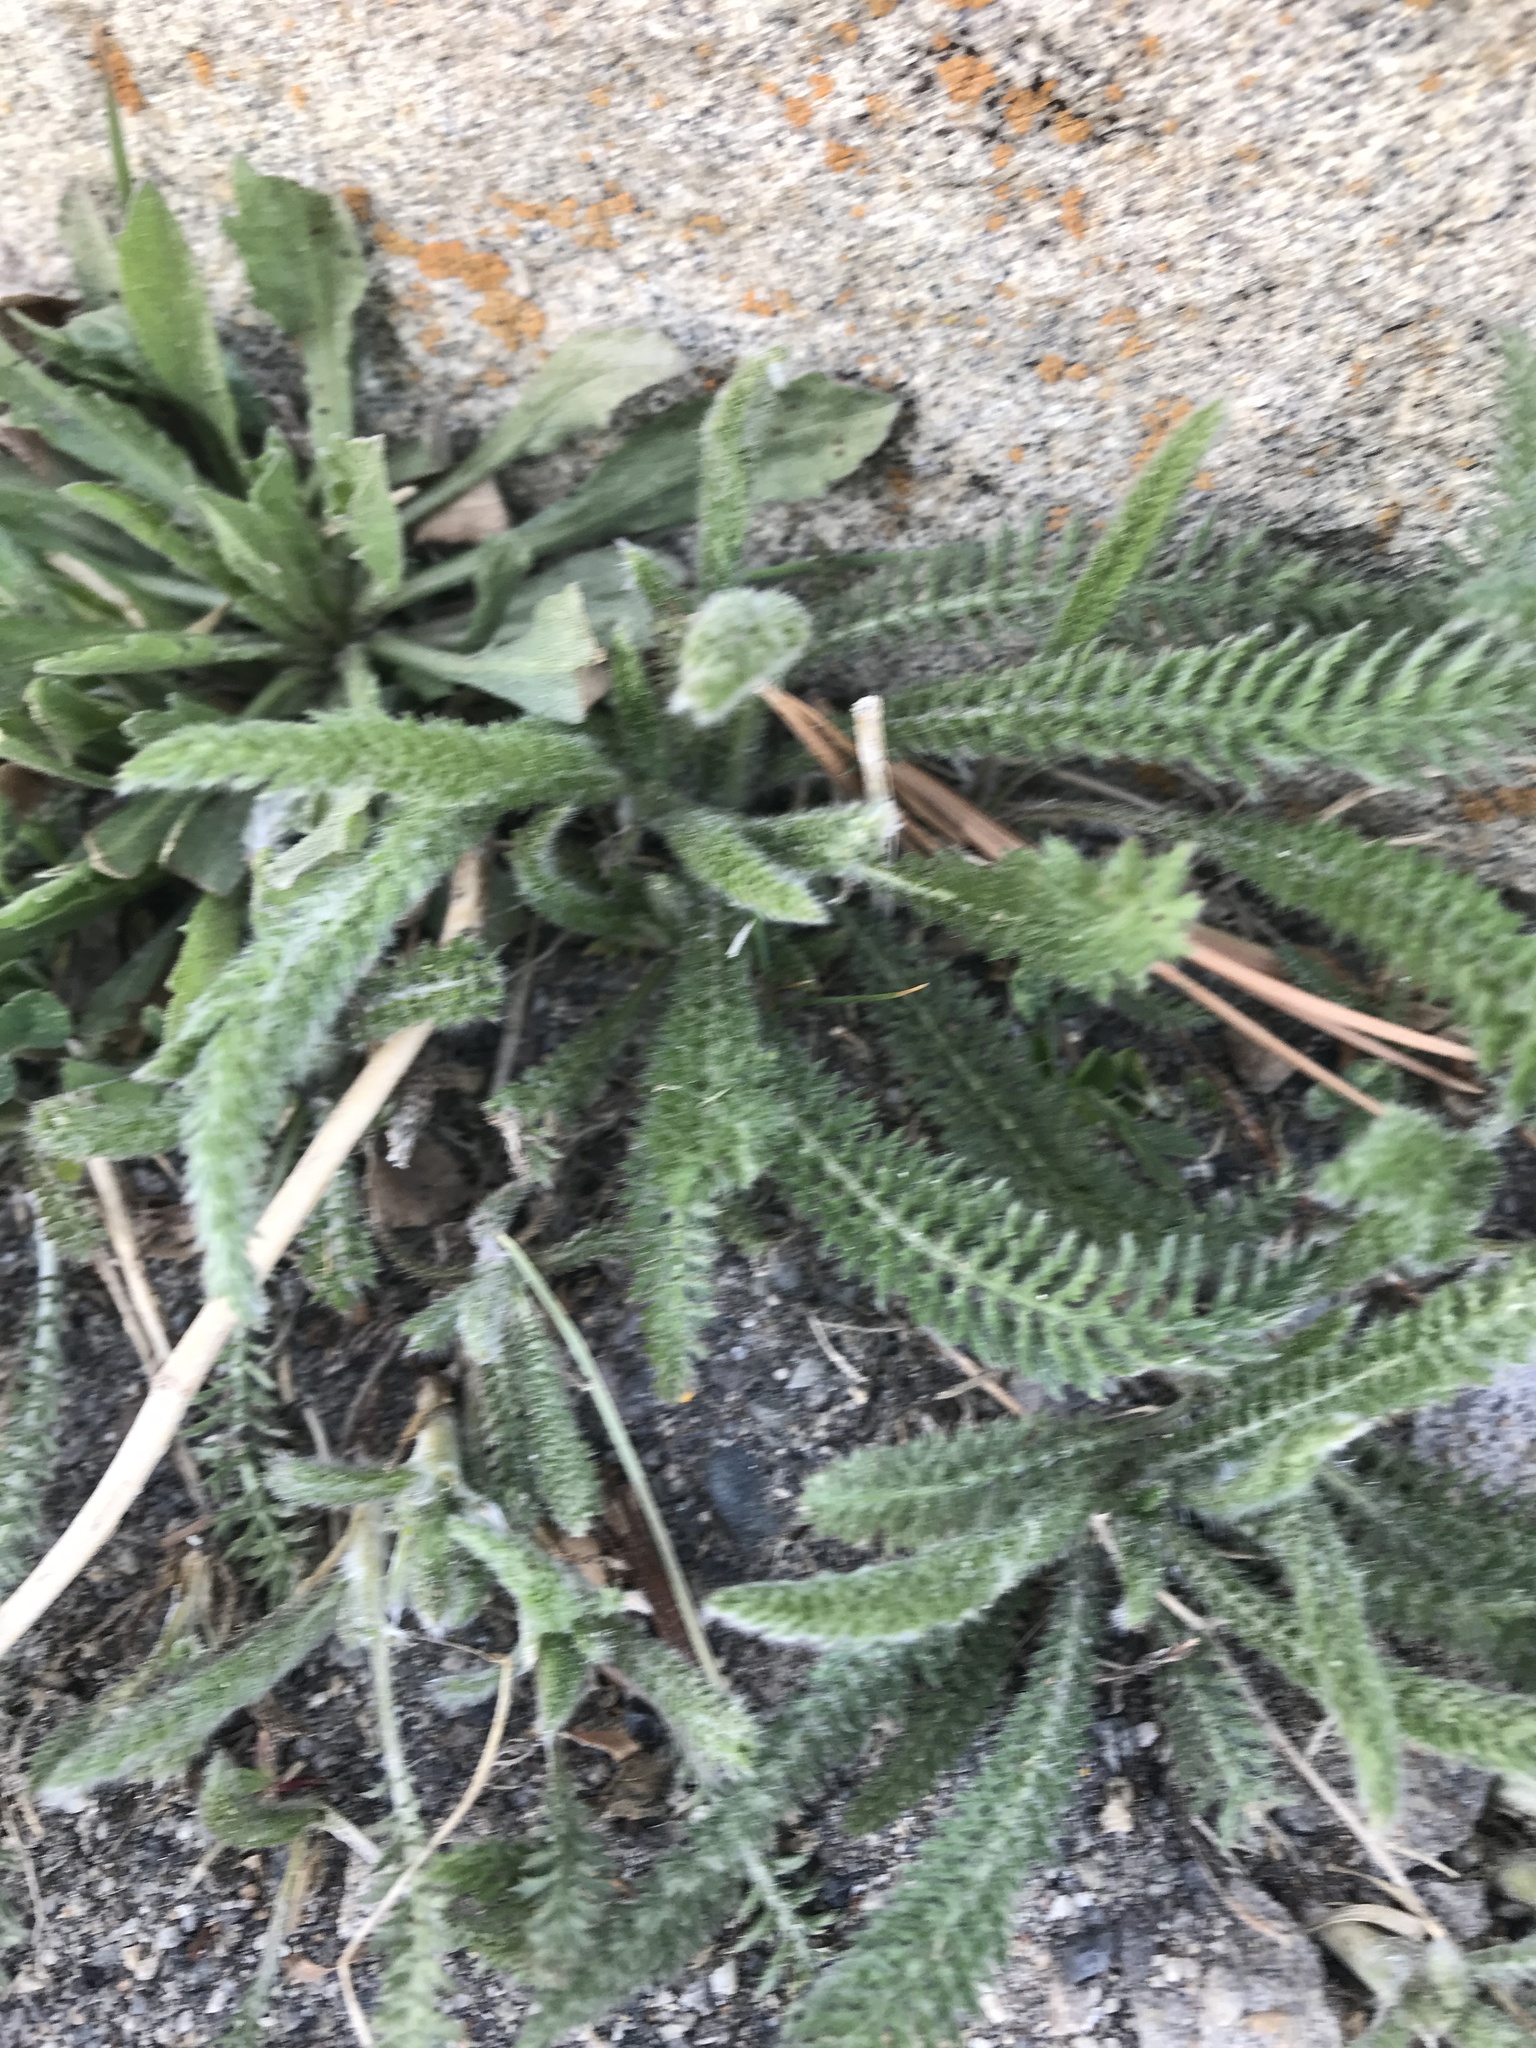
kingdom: Plantae
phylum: Tracheophyta
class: Magnoliopsida
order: Asterales
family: Asteraceae
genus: Achillea
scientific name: Achillea millefolium
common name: Yarrow
